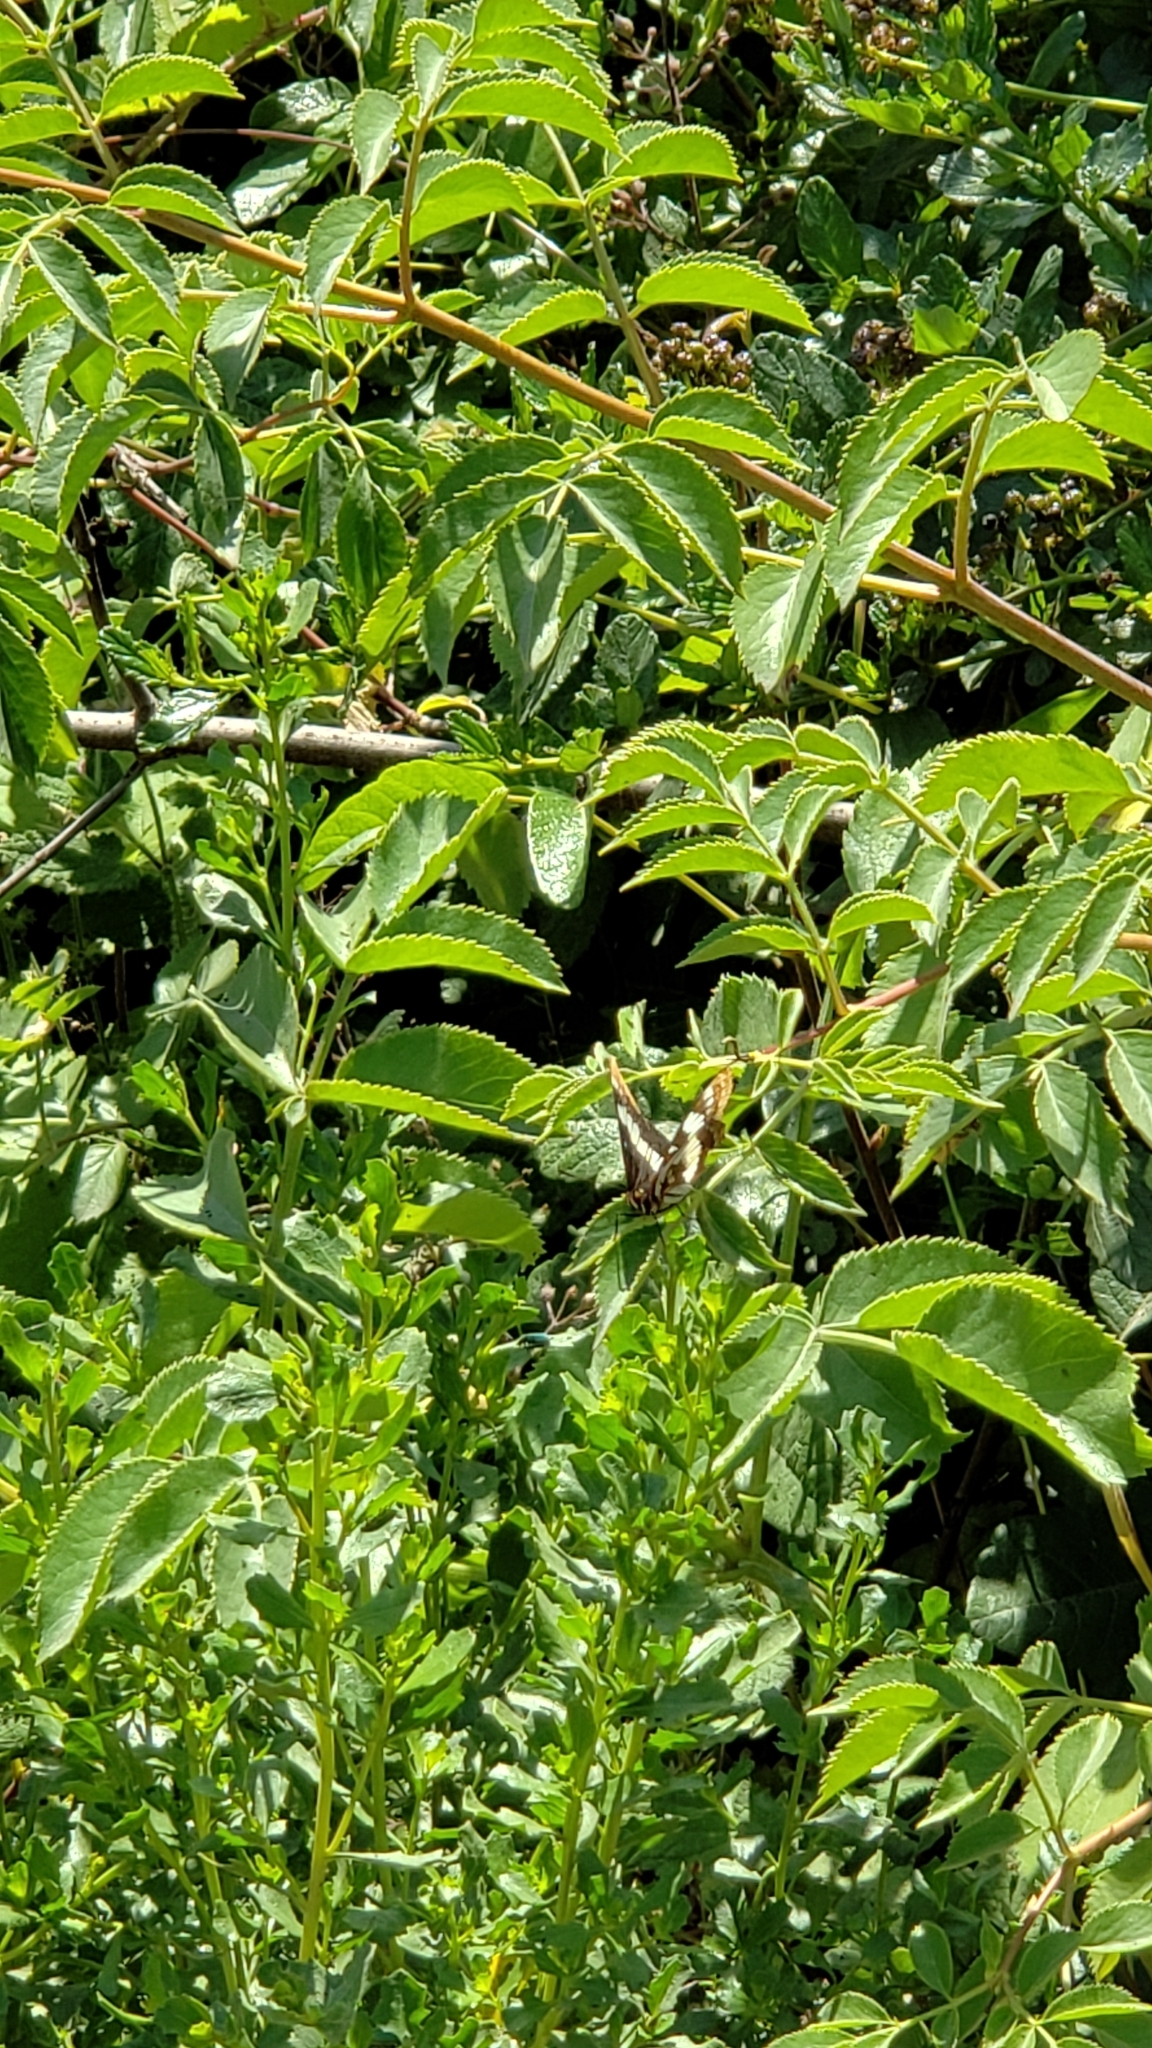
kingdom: Plantae
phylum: Tracheophyta
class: Magnoliopsida
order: Dipsacales
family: Viburnaceae
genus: Sambucus
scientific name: Sambucus cerulea
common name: Blue elder
